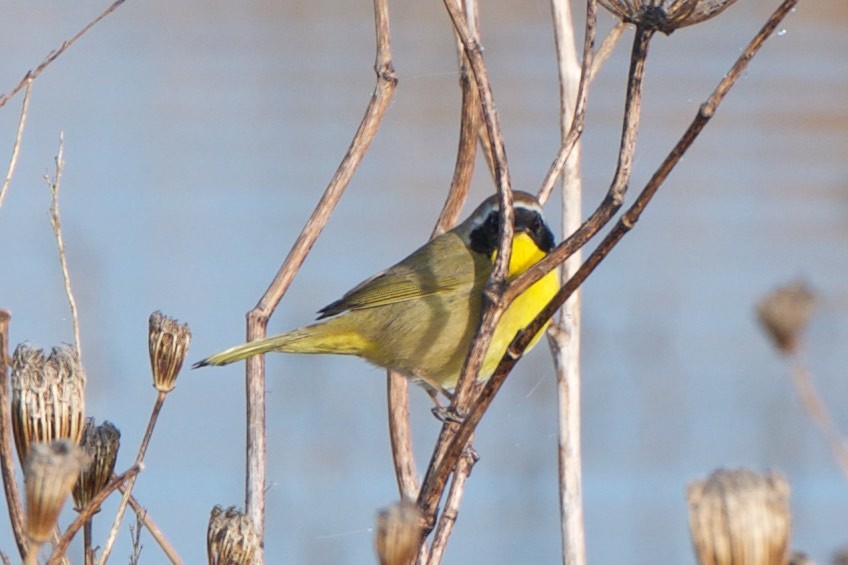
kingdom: Animalia
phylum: Chordata
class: Aves
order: Passeriformes
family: Parulidae
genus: Geothlypis
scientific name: Geothlypis trichas
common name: Common yellowthroat
